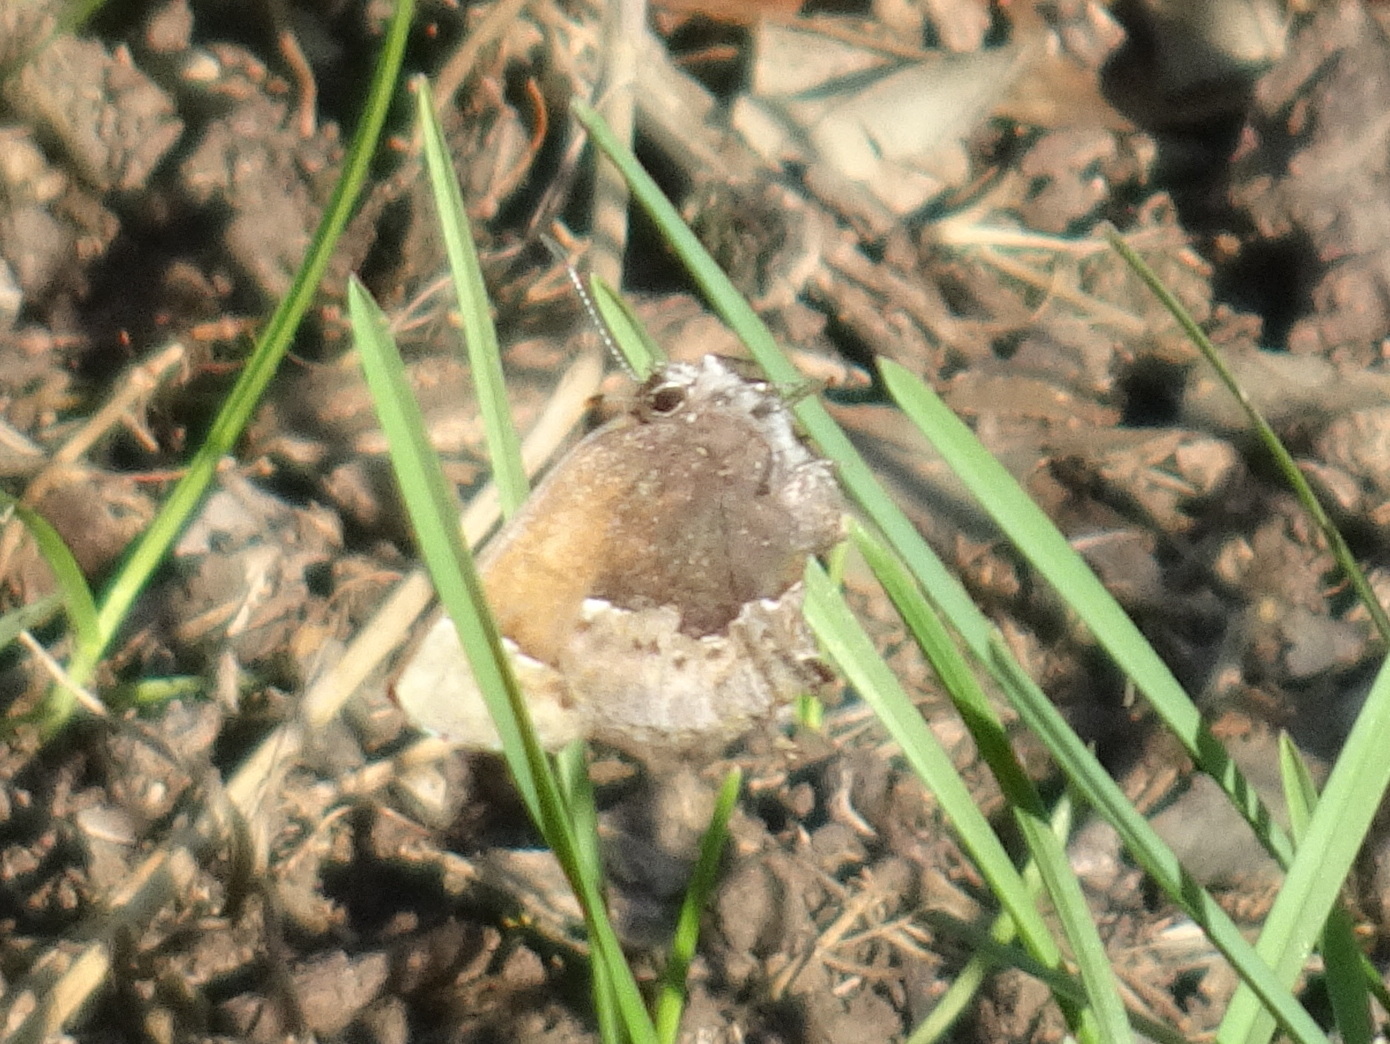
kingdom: Animalia
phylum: Arthropoda
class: Insecta
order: Lepidoptera
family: Lycaenidae
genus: Incisalia
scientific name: Incisalia henrici
